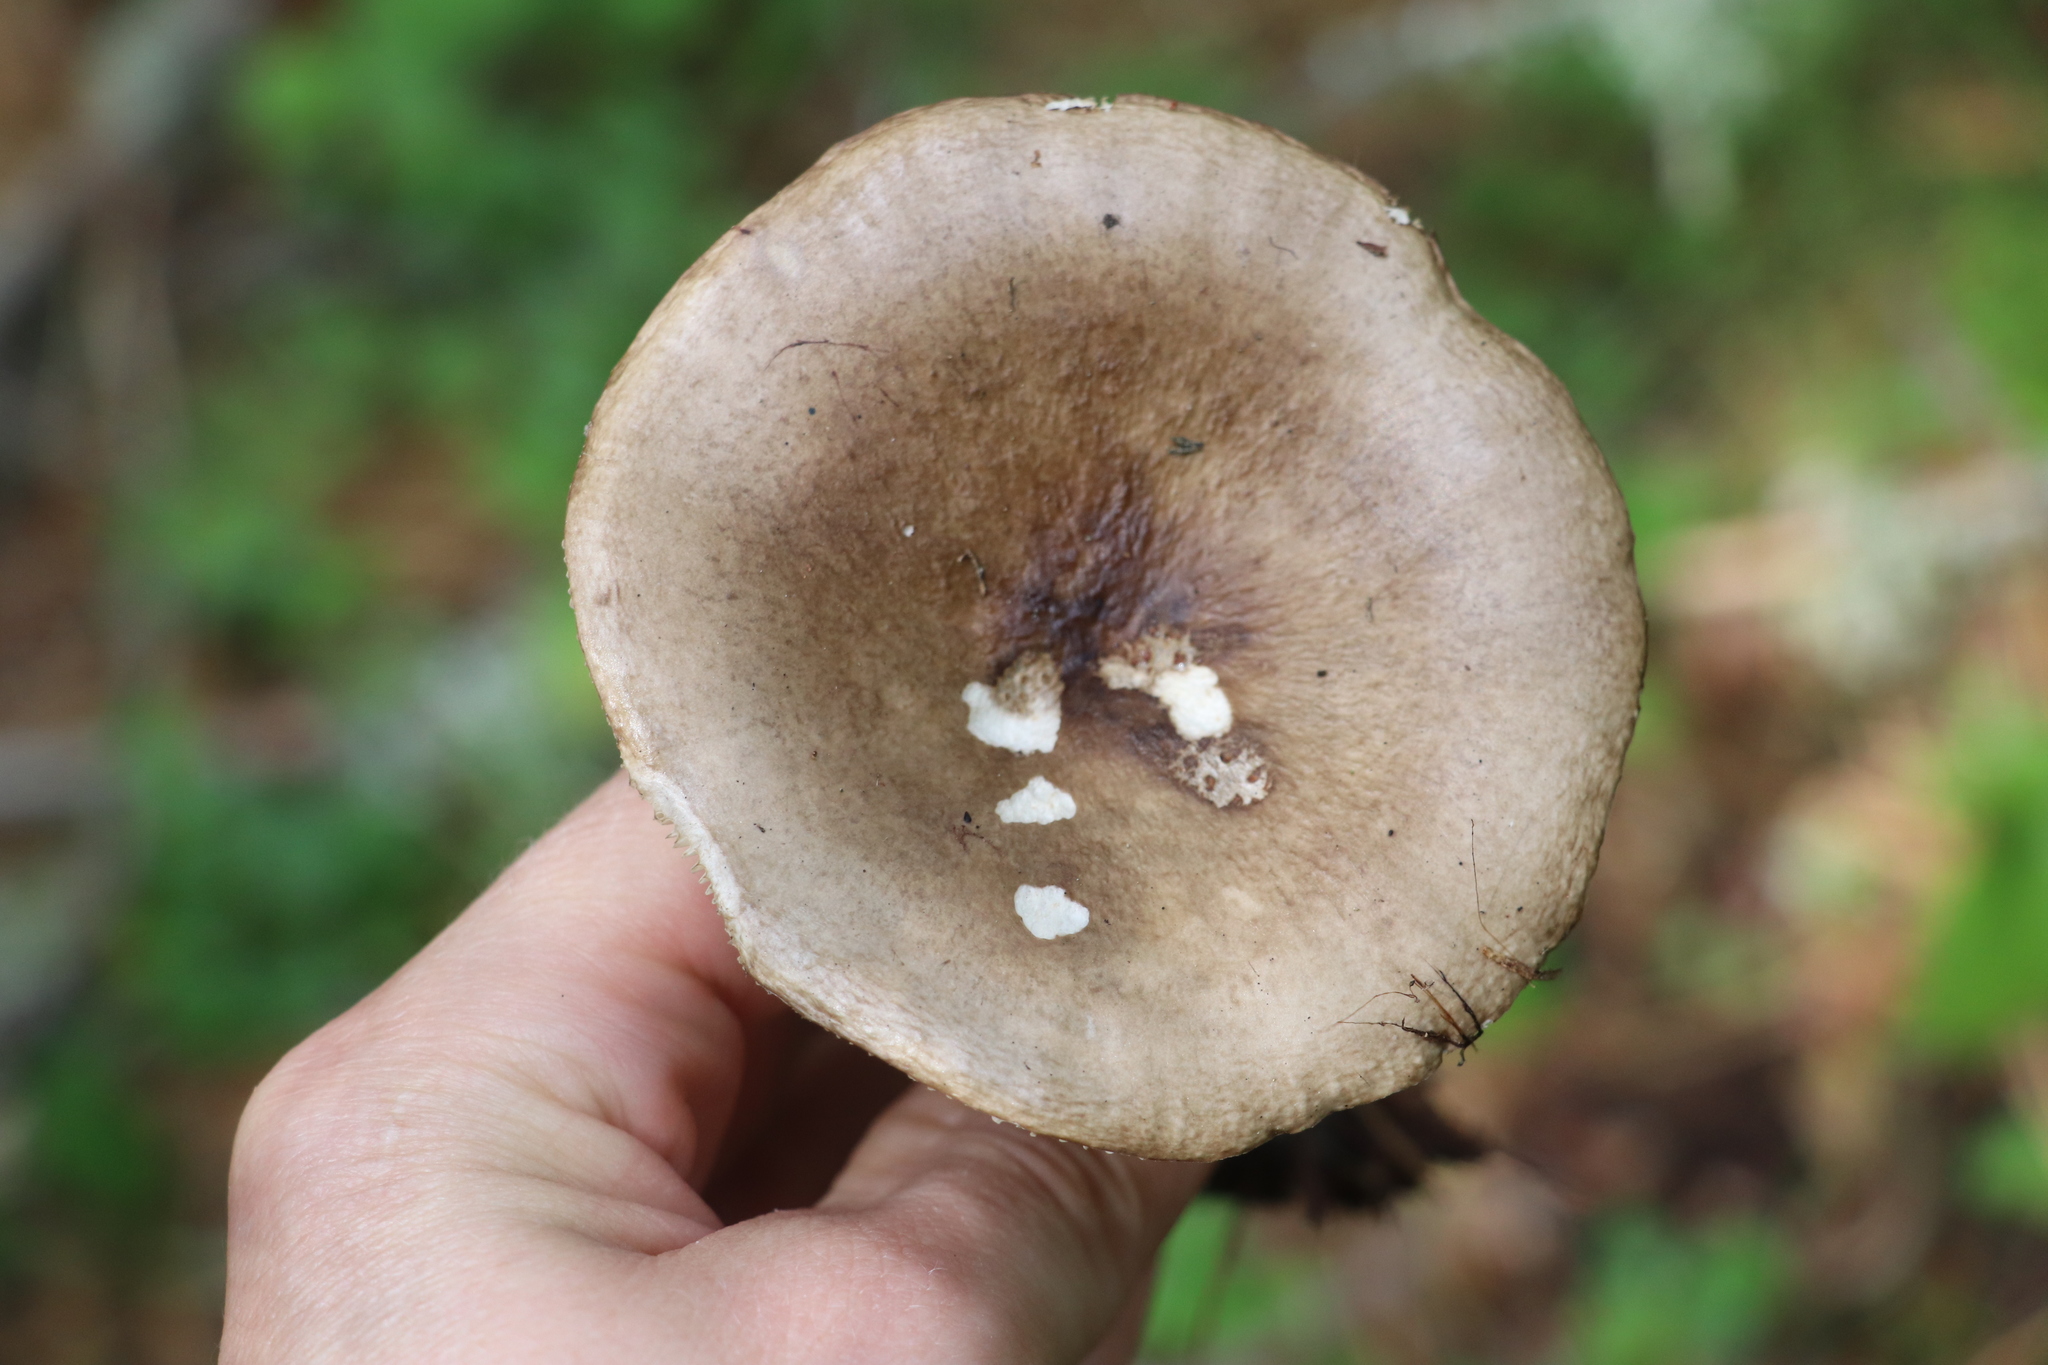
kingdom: Fungi
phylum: Basidiomycota
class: Agaricomycetes
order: Russulales
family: Russulaceae
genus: Russula
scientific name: Russula consobrina
